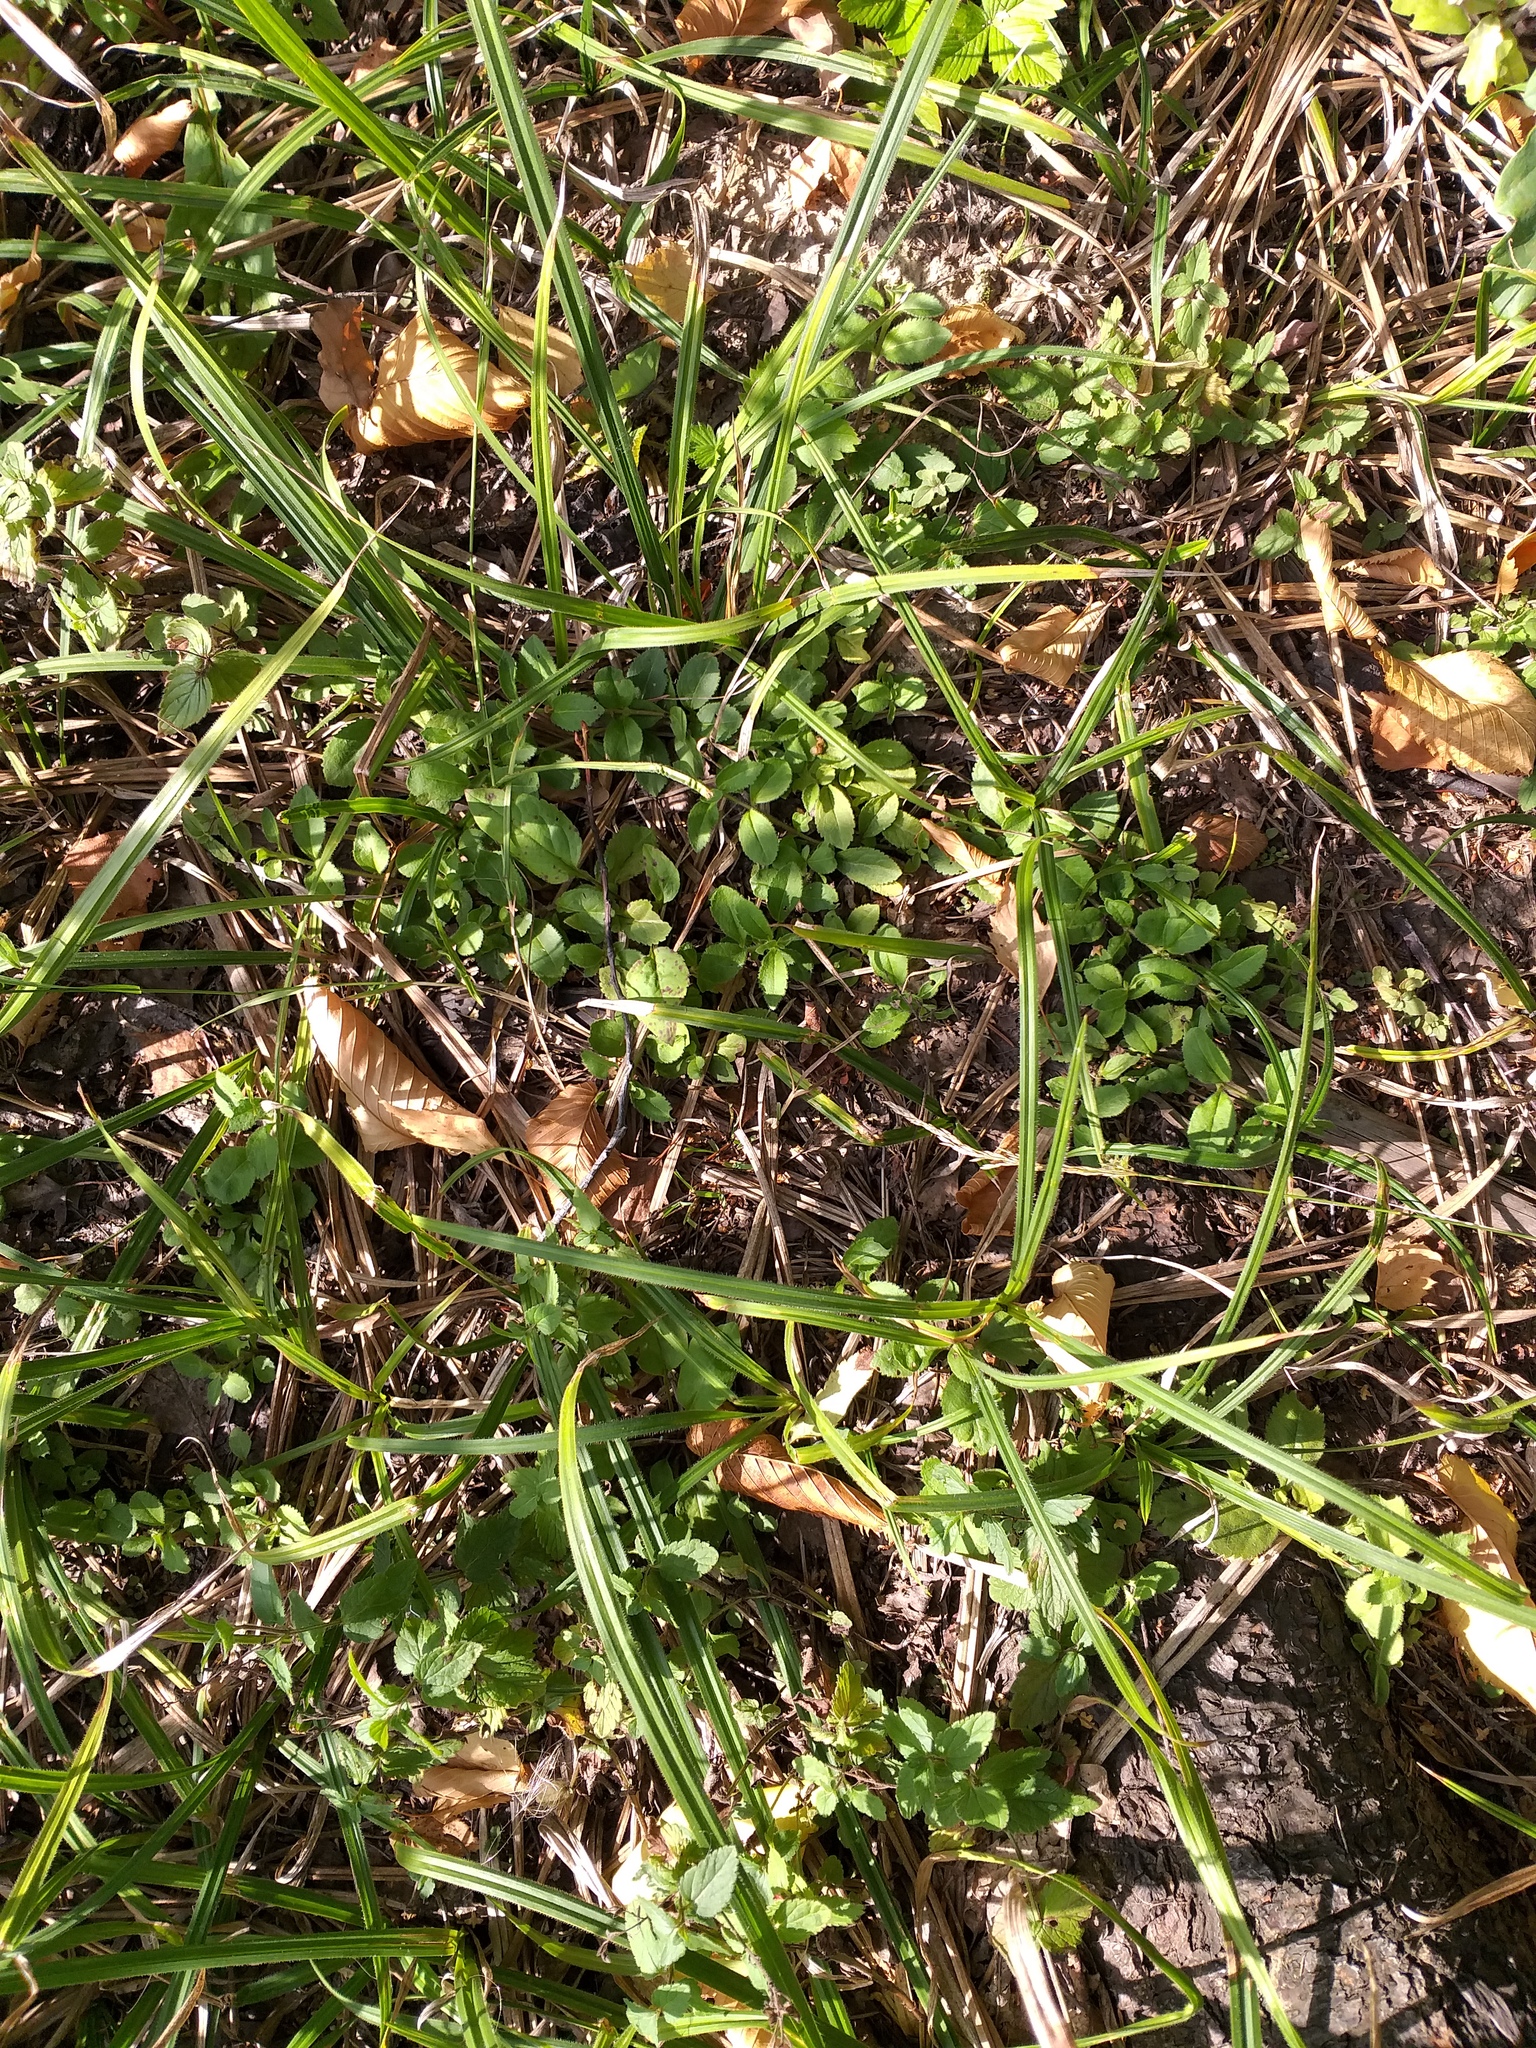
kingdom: Plantae
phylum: Tracheophyta
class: Magnoliopsida
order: Lamiales
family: Plantaginaceae
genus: Veronica
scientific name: Veronica officinalis
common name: Common speedwell
